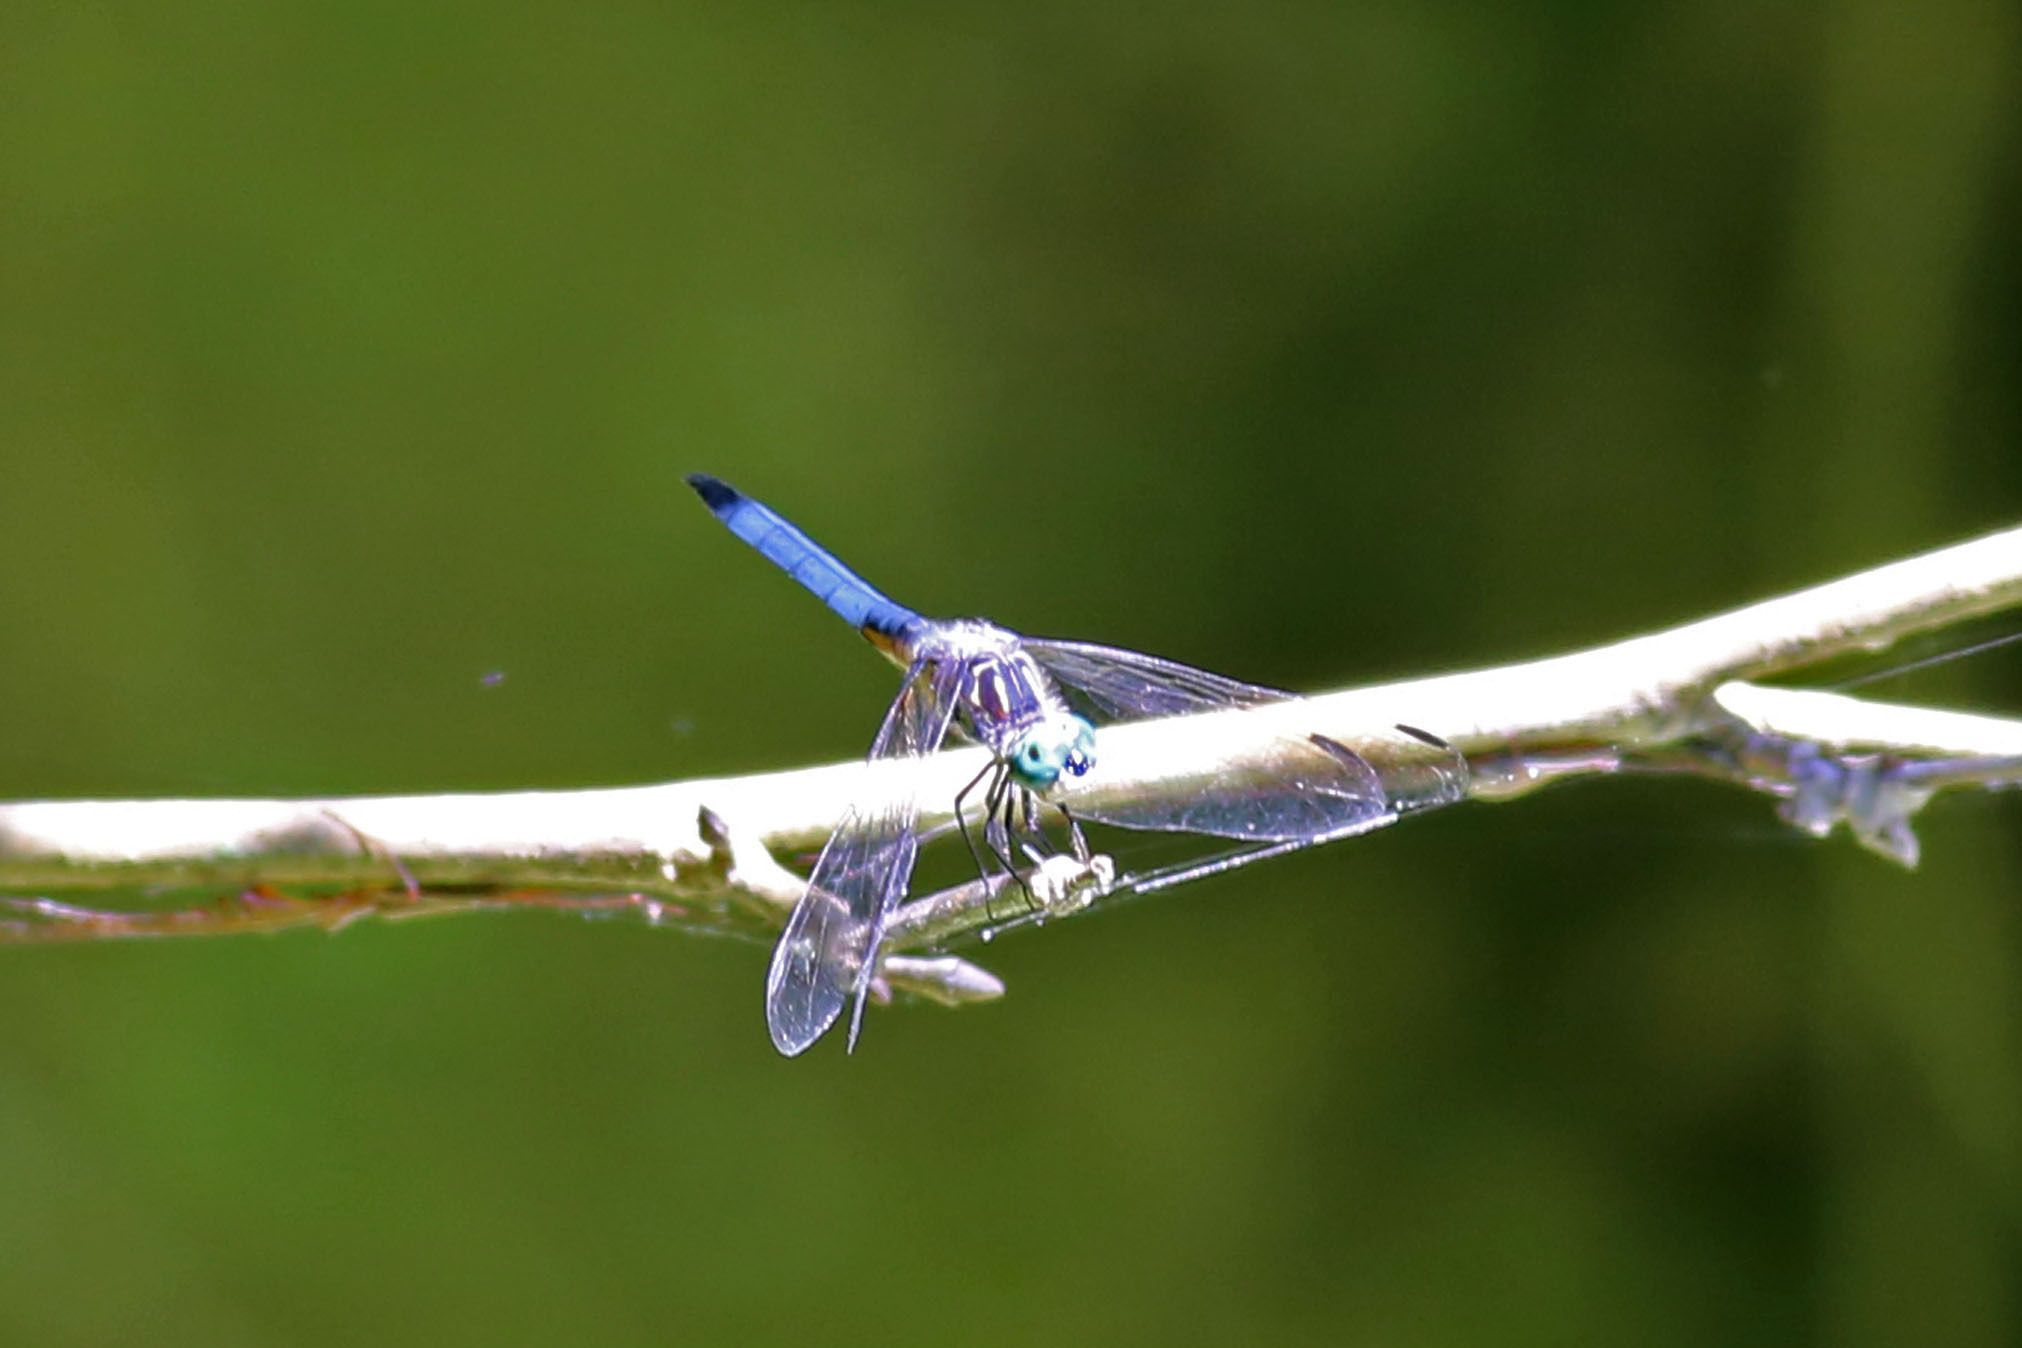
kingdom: Animalia
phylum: Arthropoda
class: Insecta
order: Odonata
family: Libellulidae
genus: Pachydiplax
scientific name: Pachydiplax longipennis
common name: Blue dasher
